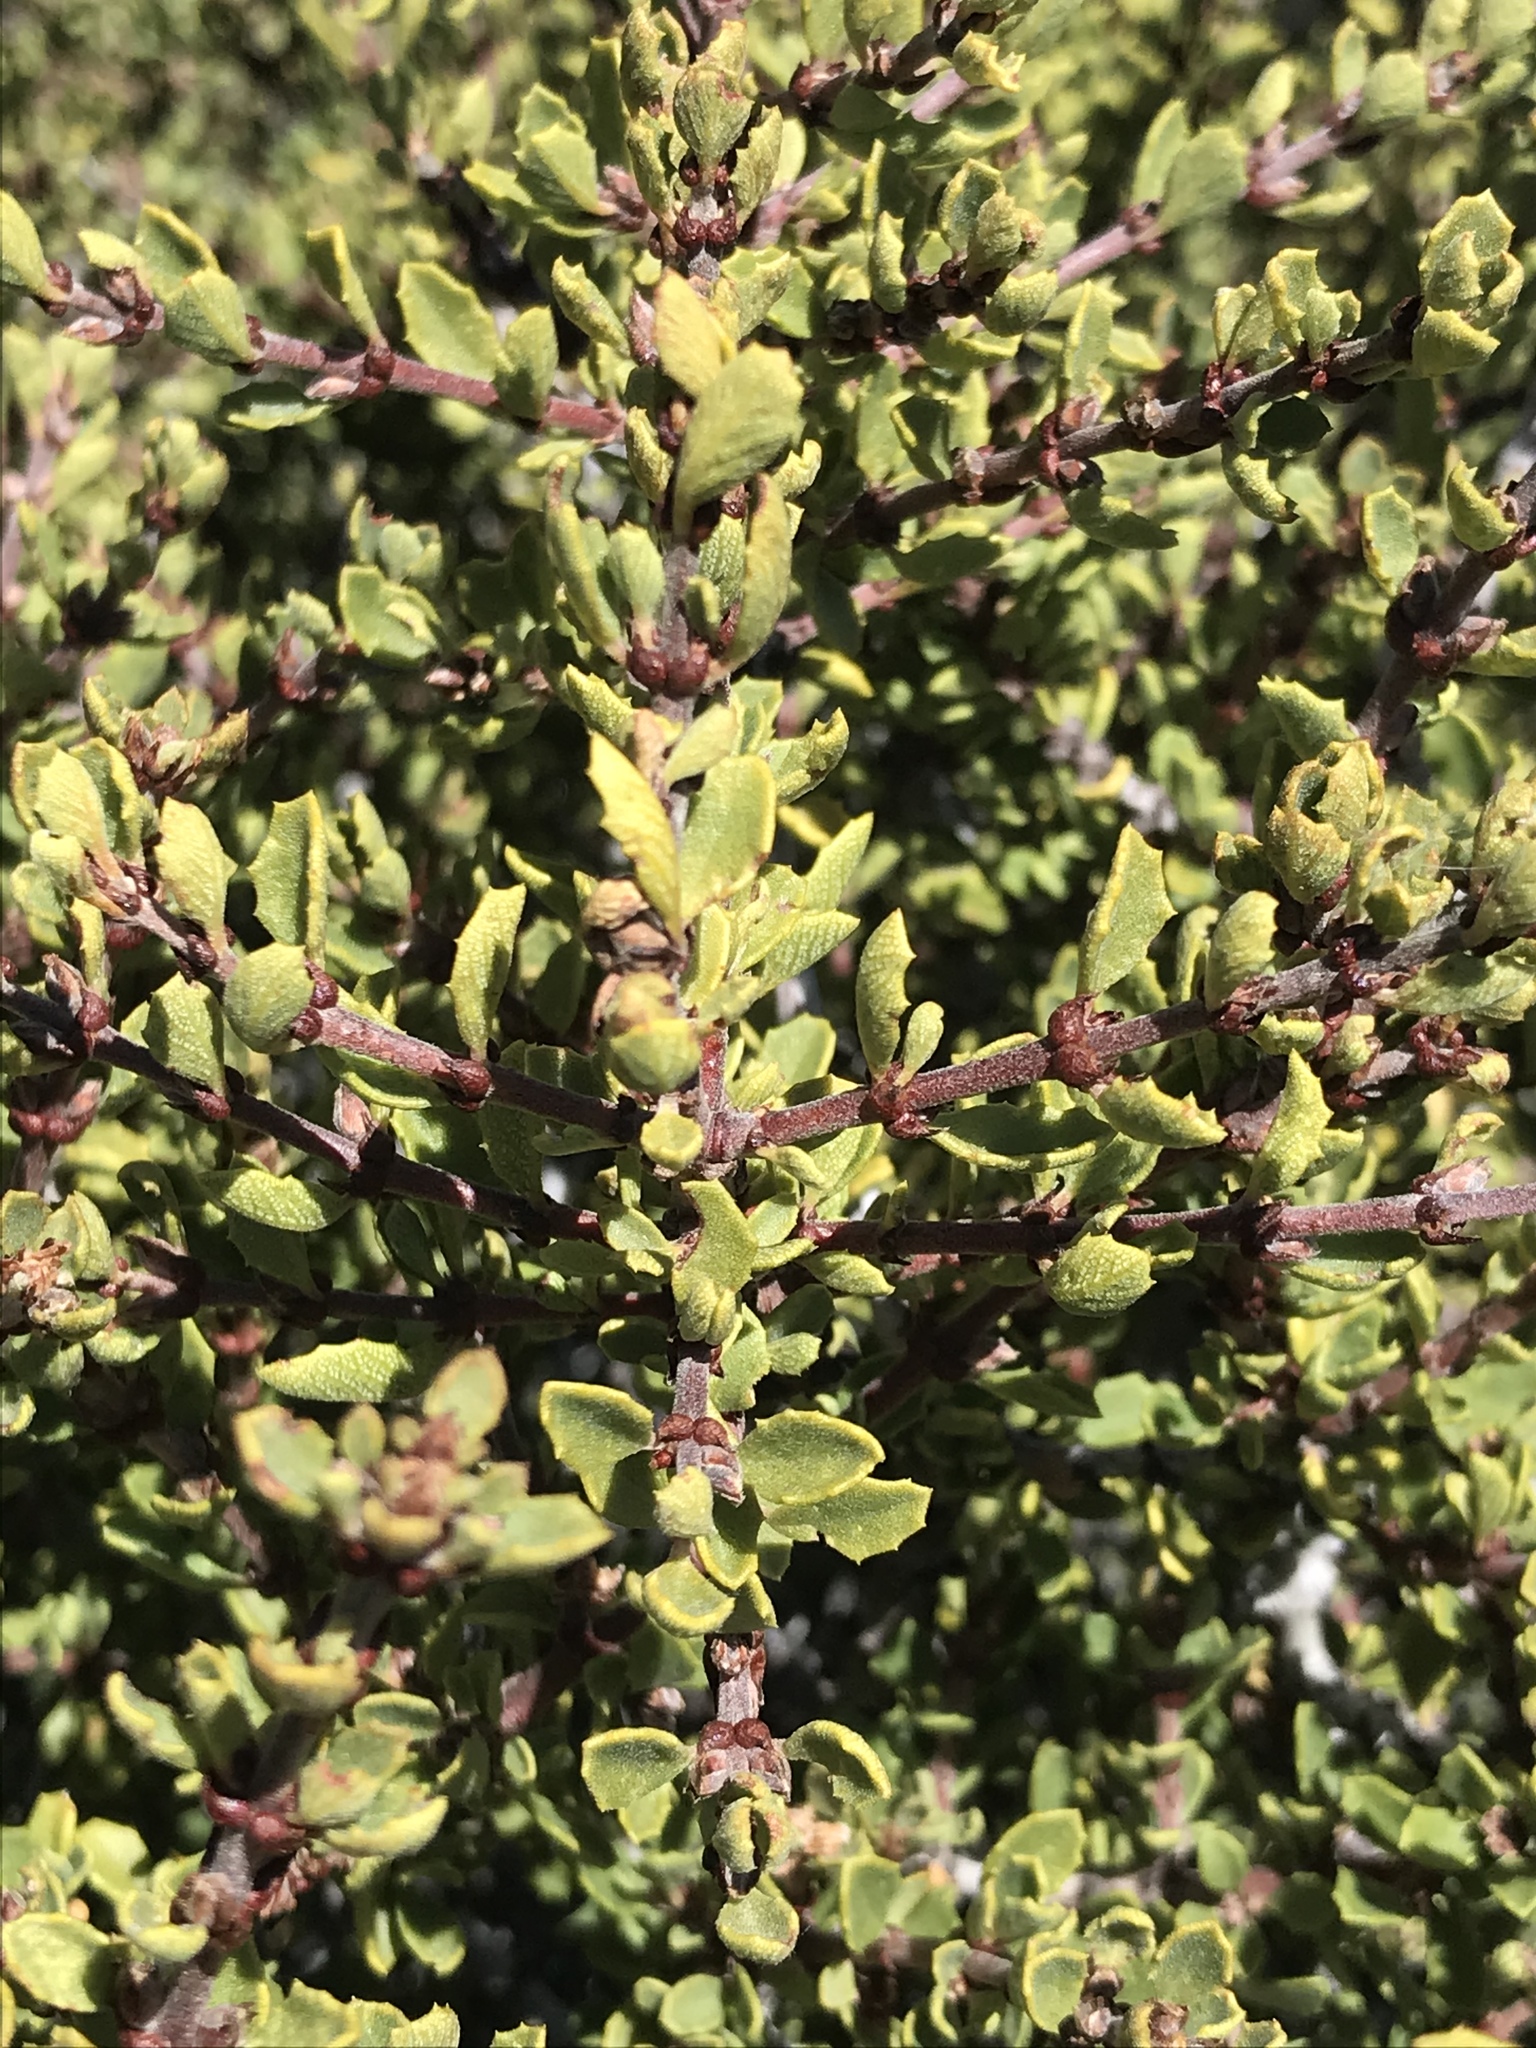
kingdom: Plantae
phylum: Tracheophyta
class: Magnoliopsida
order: Rosales
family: Rhamnaceae
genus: Ceanothus
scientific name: Ceanothus perplexans
